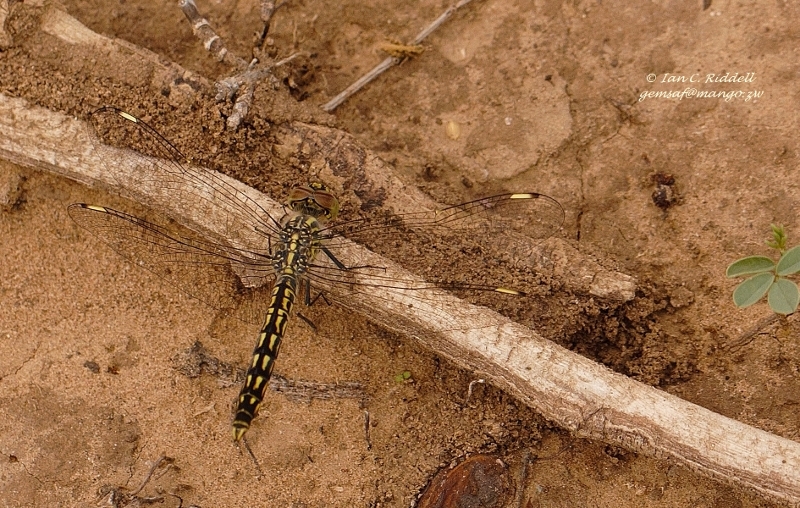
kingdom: Animalia
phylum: Arthropoda
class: Insecta
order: Odonata
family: Libellulidae
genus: Brachythemis
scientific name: Brachythemis leucosticta
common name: Banded groundling
